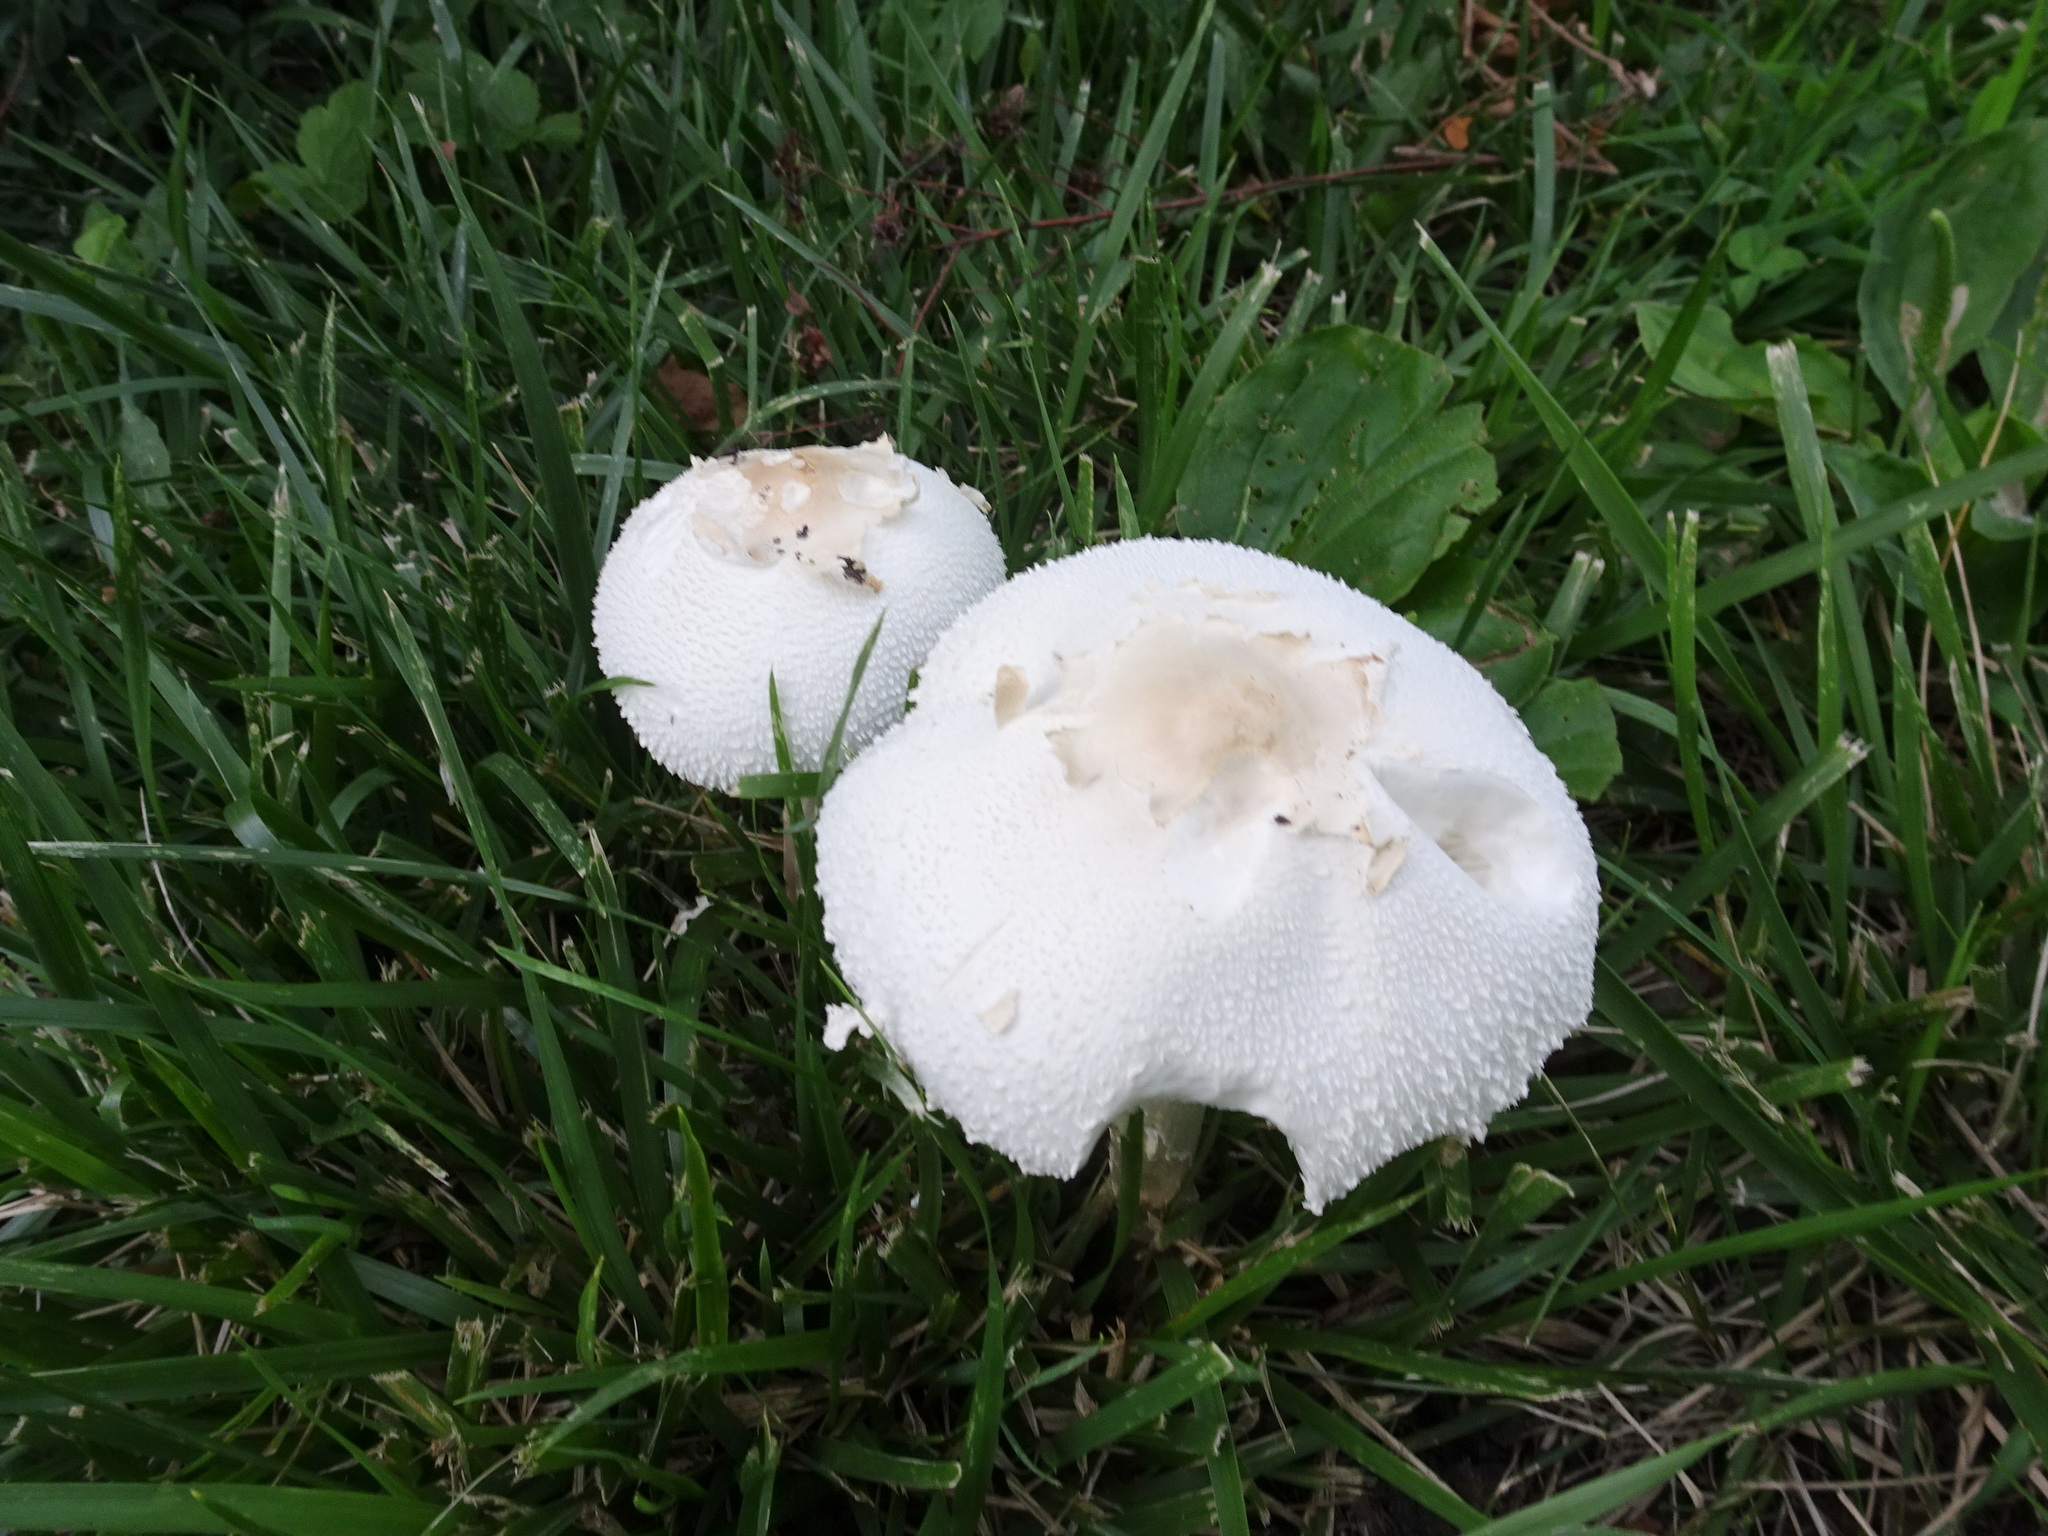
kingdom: Fungi
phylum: Basidiomycota
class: Agaricomycetes
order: Agaricales
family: Agaricaceae
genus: Chlorophyllum
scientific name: Chlorophyllum molybdites
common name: False parasol
